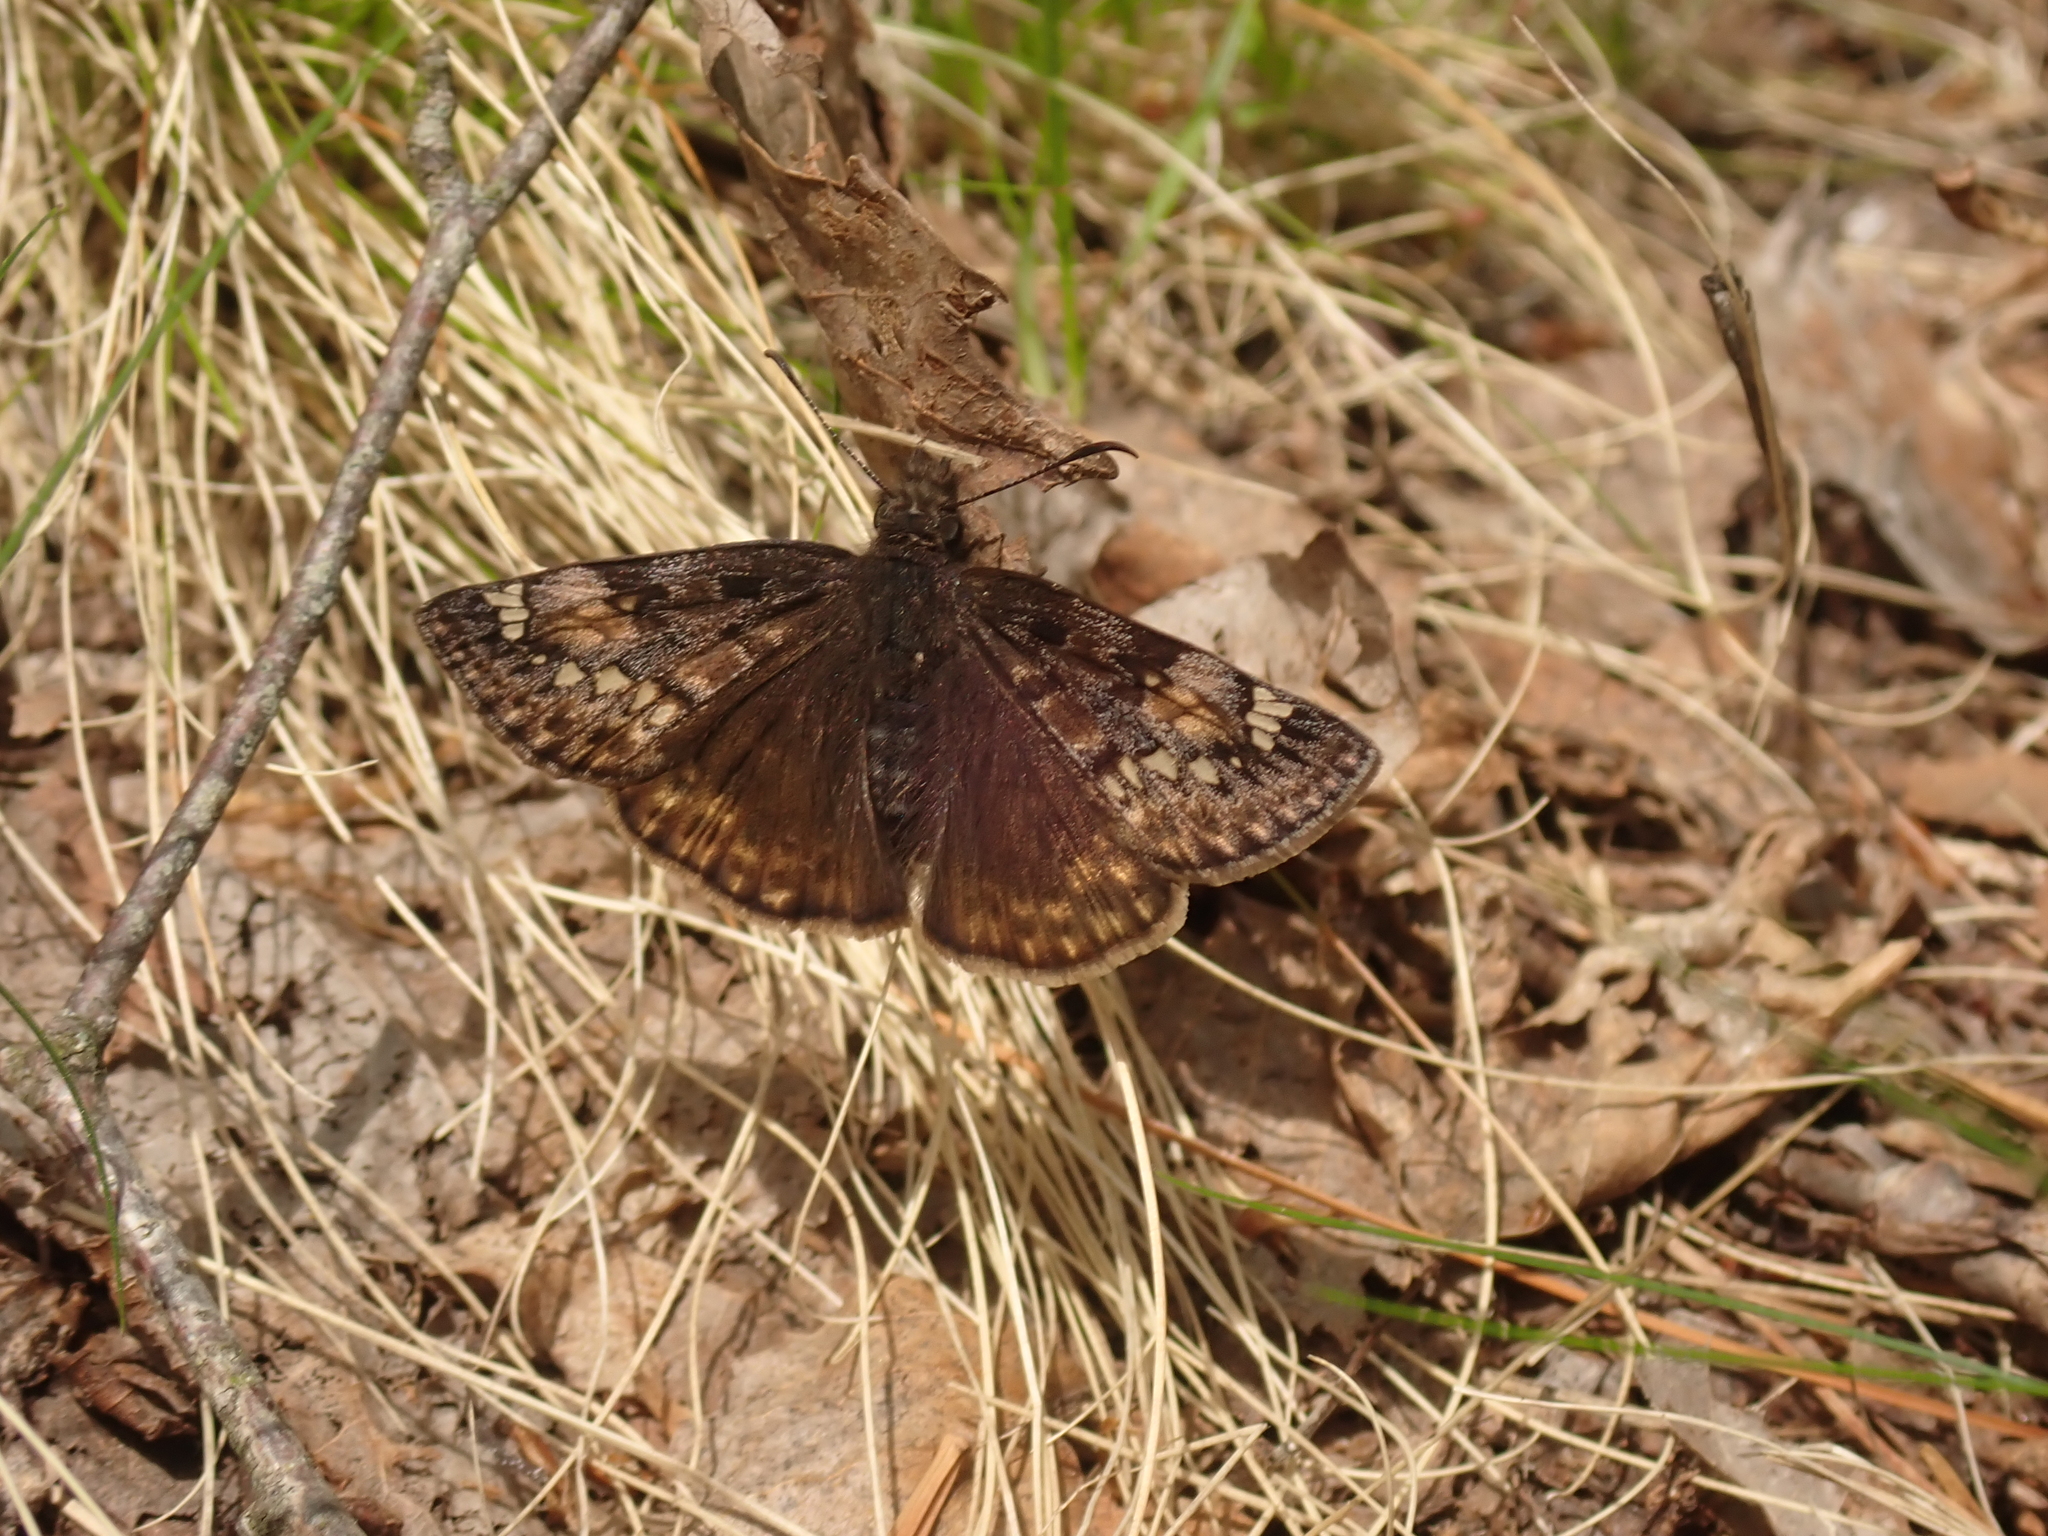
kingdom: Animalia
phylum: Arthropoda
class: Insecta
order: Lepidoptera
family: Hesperiidae
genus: Erynnis
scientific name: Erynnis juvenalis
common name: Juvenal's duskywing
